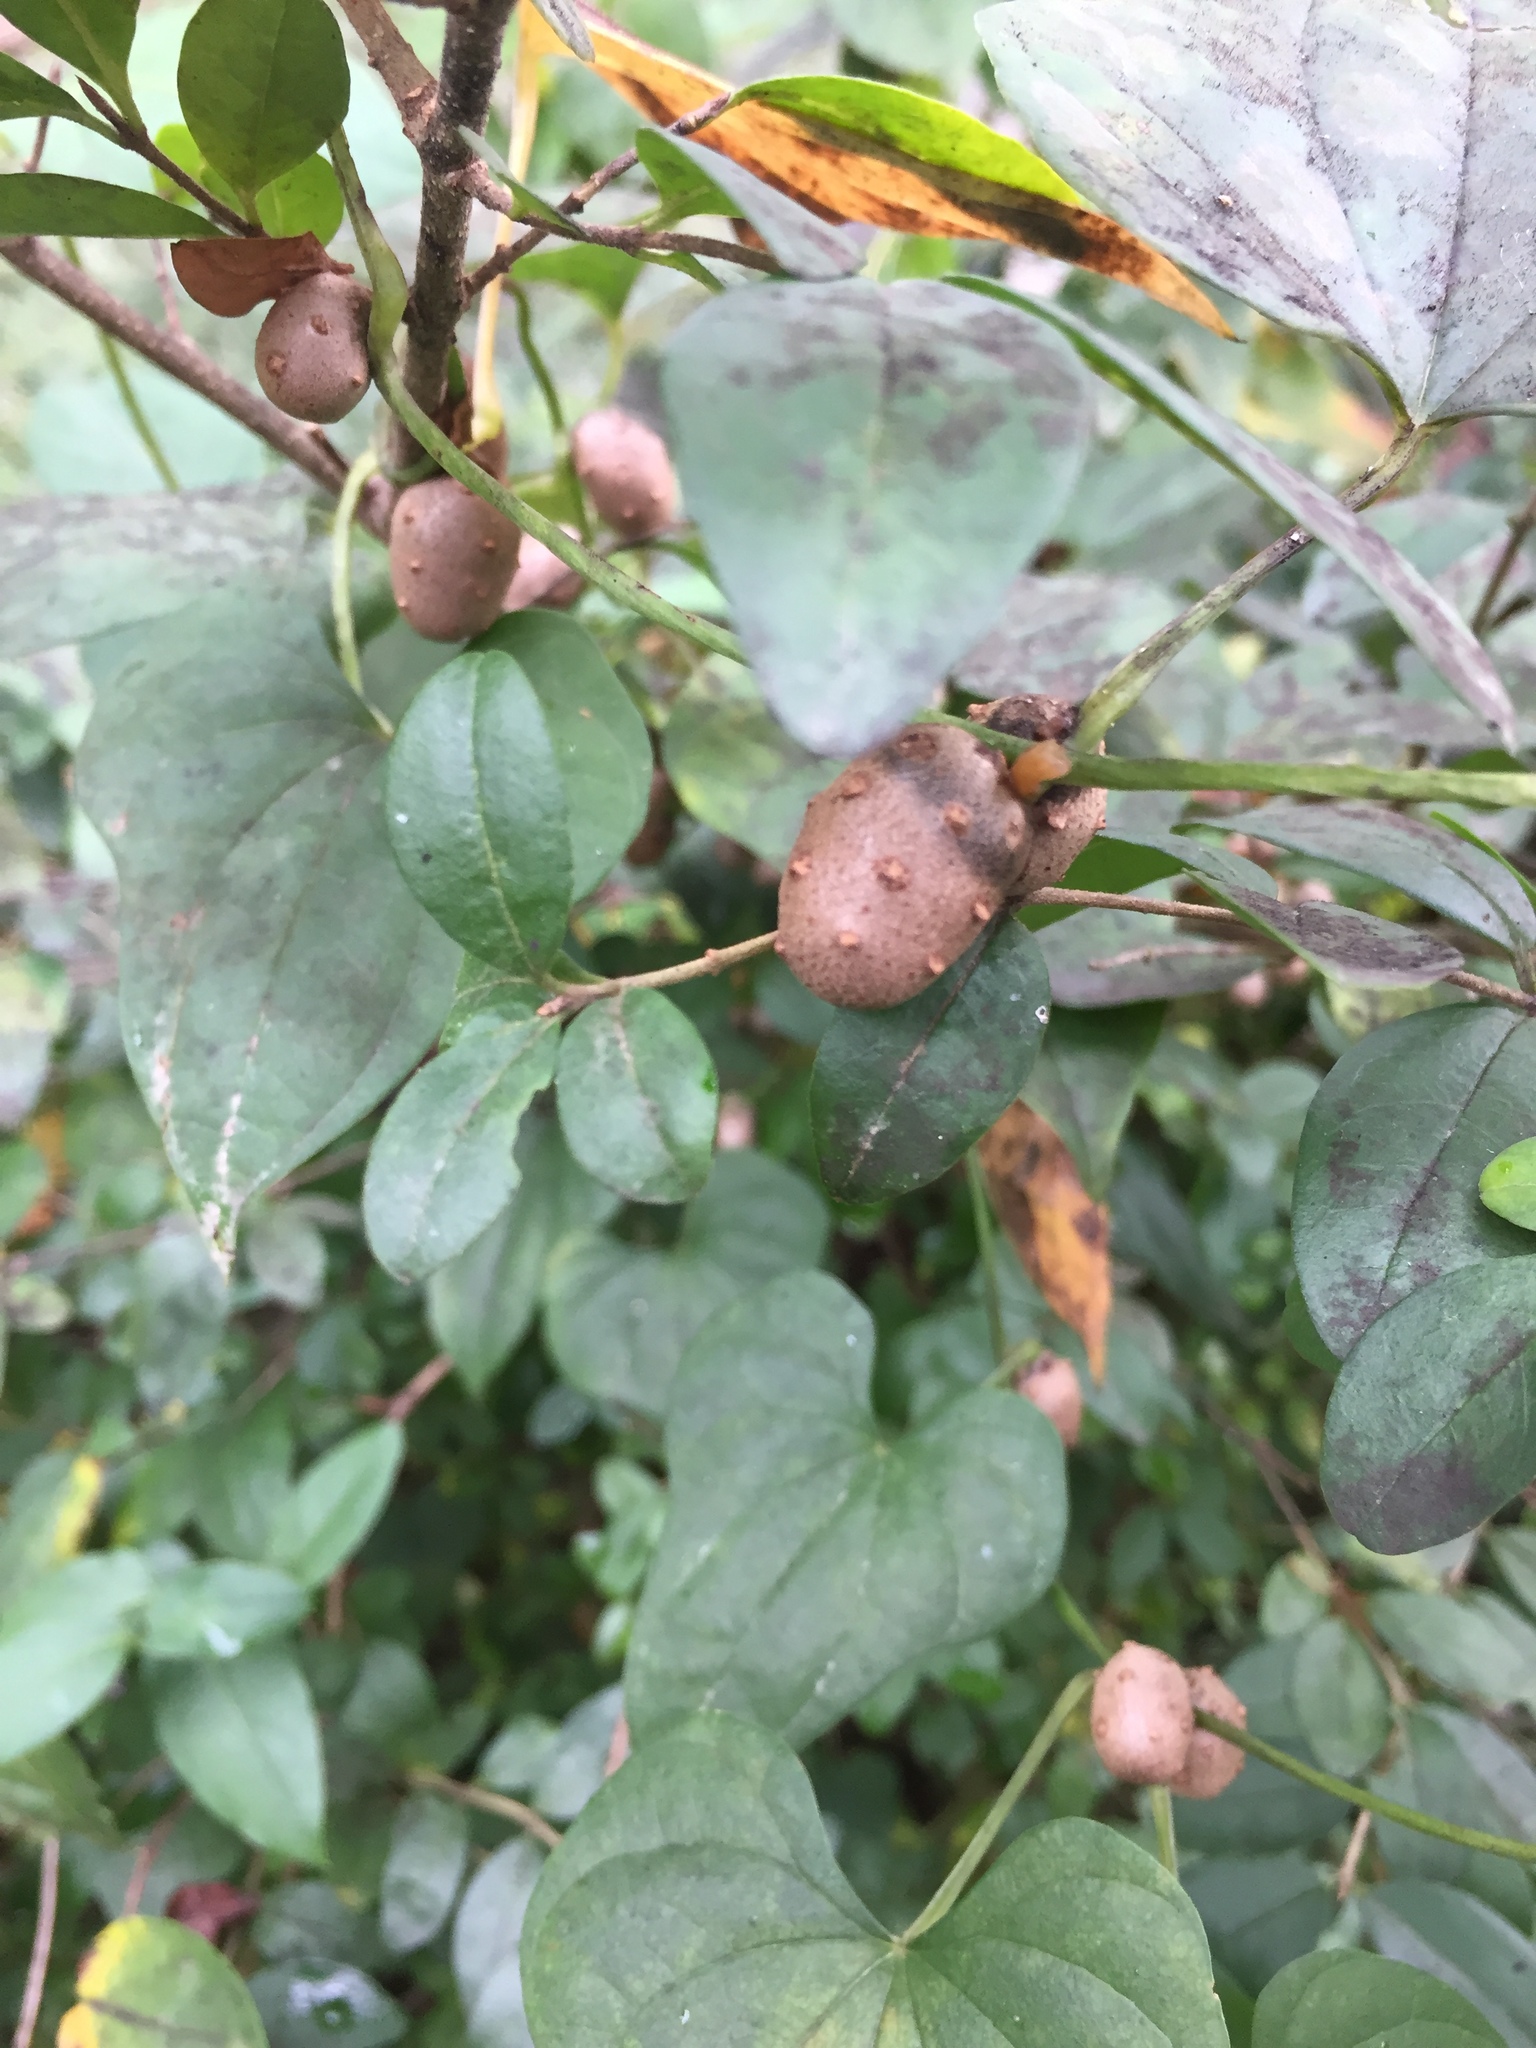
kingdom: Plantae
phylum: Tracheophyta
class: Liliopsida
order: Dioscoreales
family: Dioscoreaceae
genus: Dioscorea
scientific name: Dioscorea polystachya
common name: Chinese yam
